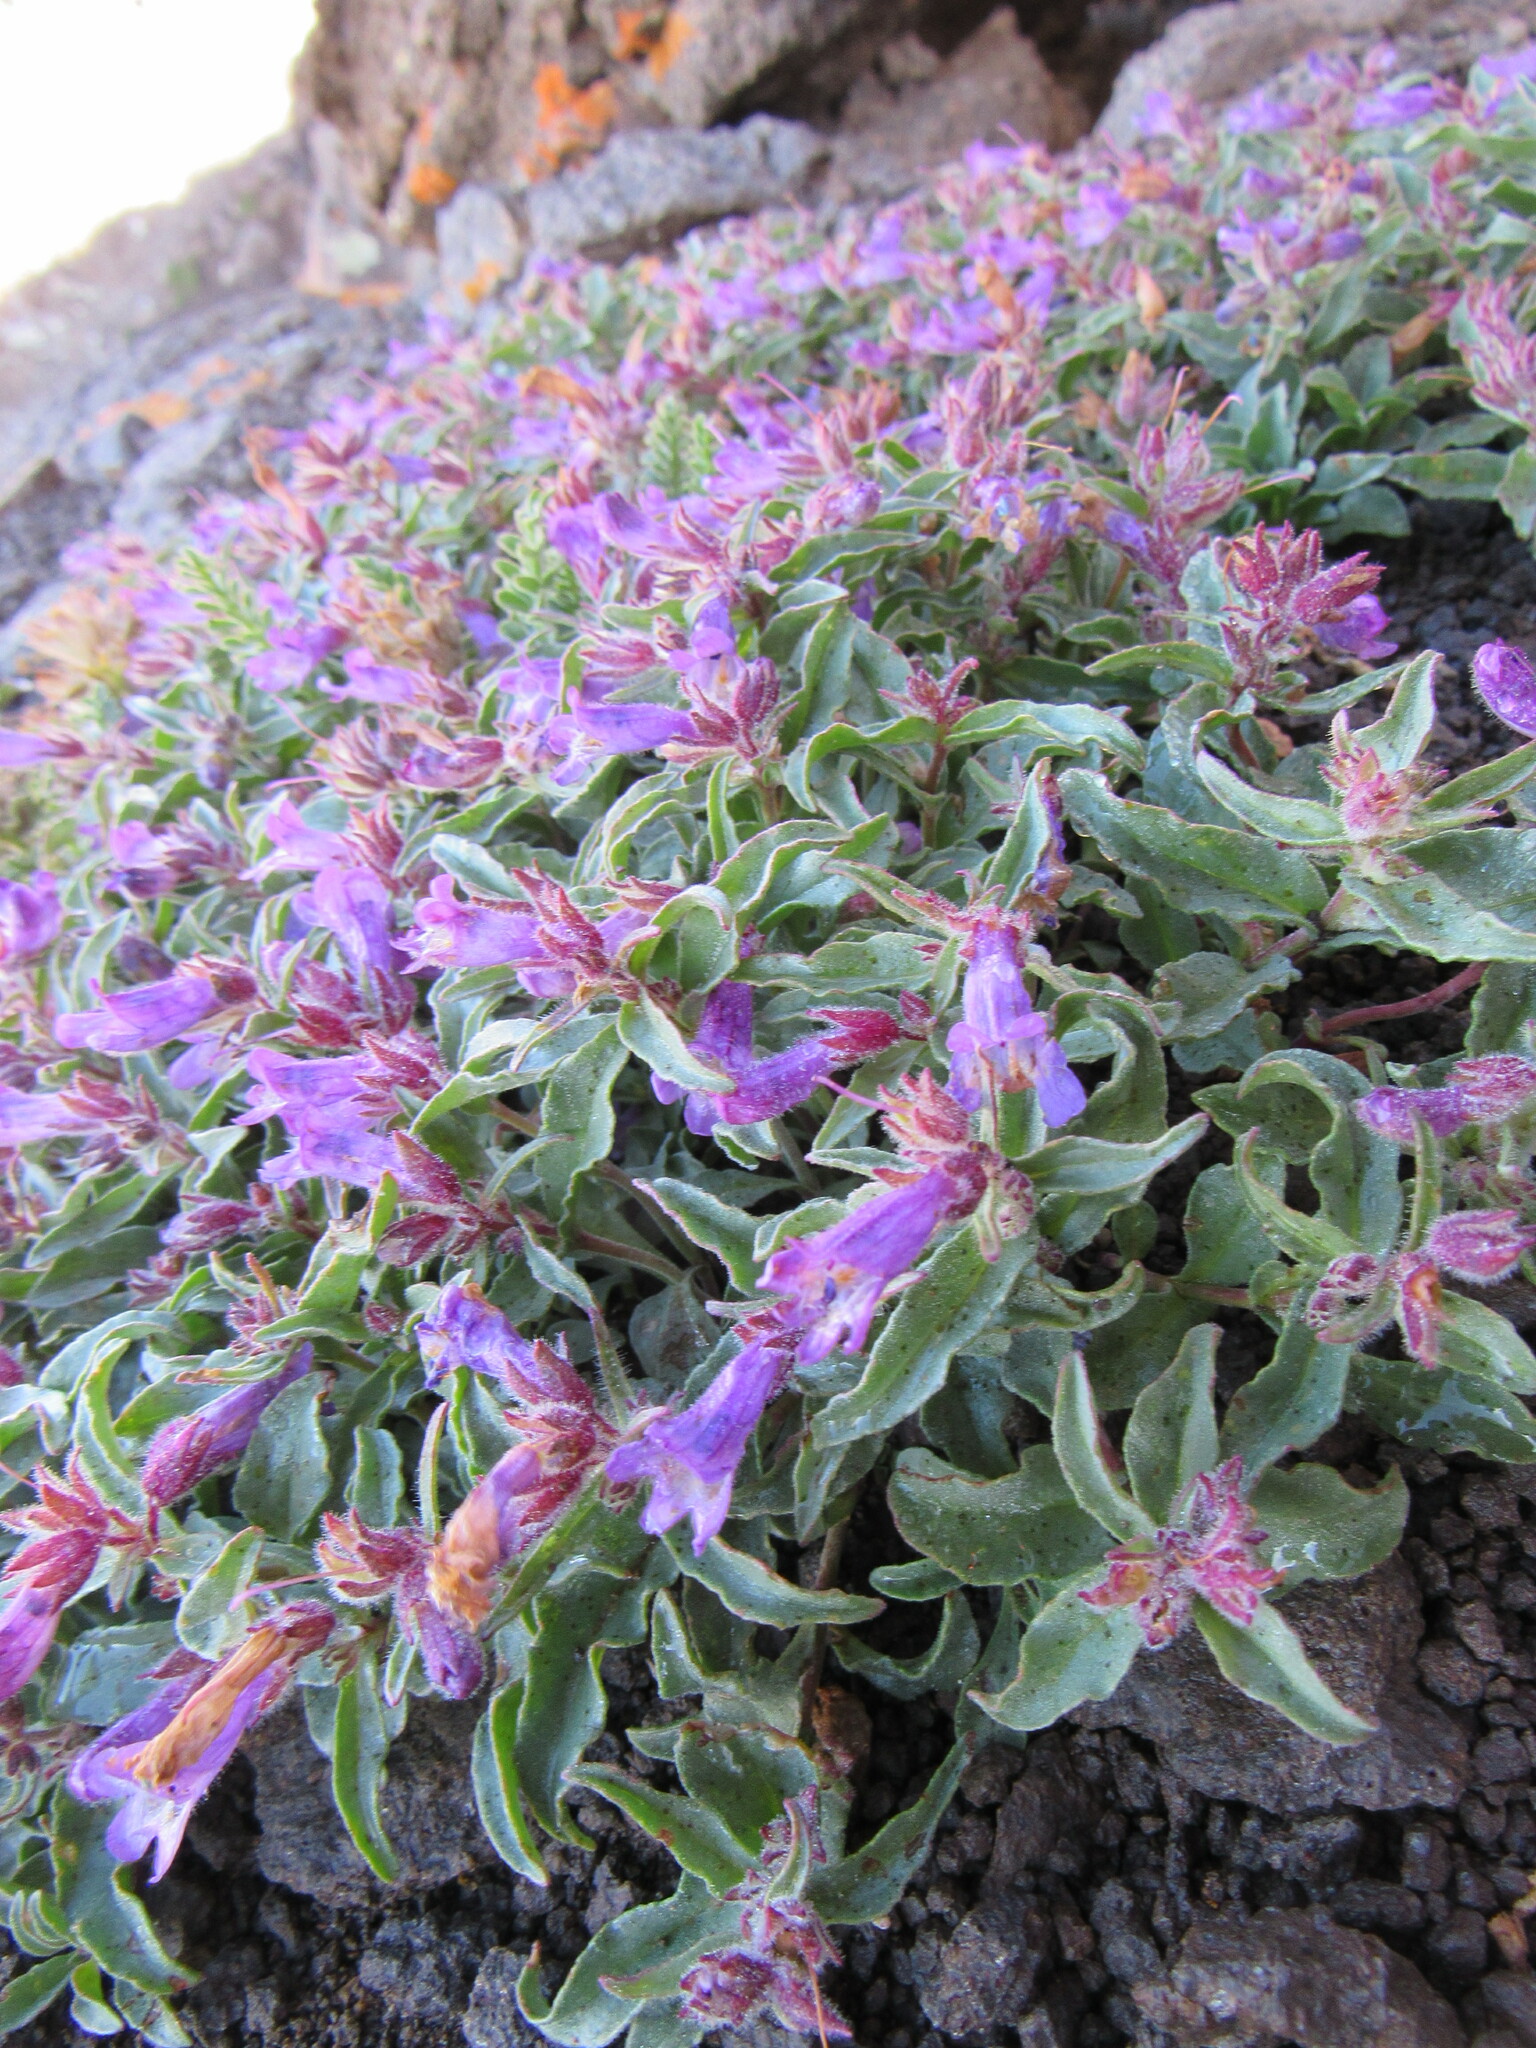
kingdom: Plantae
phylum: Tracheophyta
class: Magnoliopsida
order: Lamiales
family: Plantaginaceae
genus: Penstemon
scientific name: Penstemon harbourii
